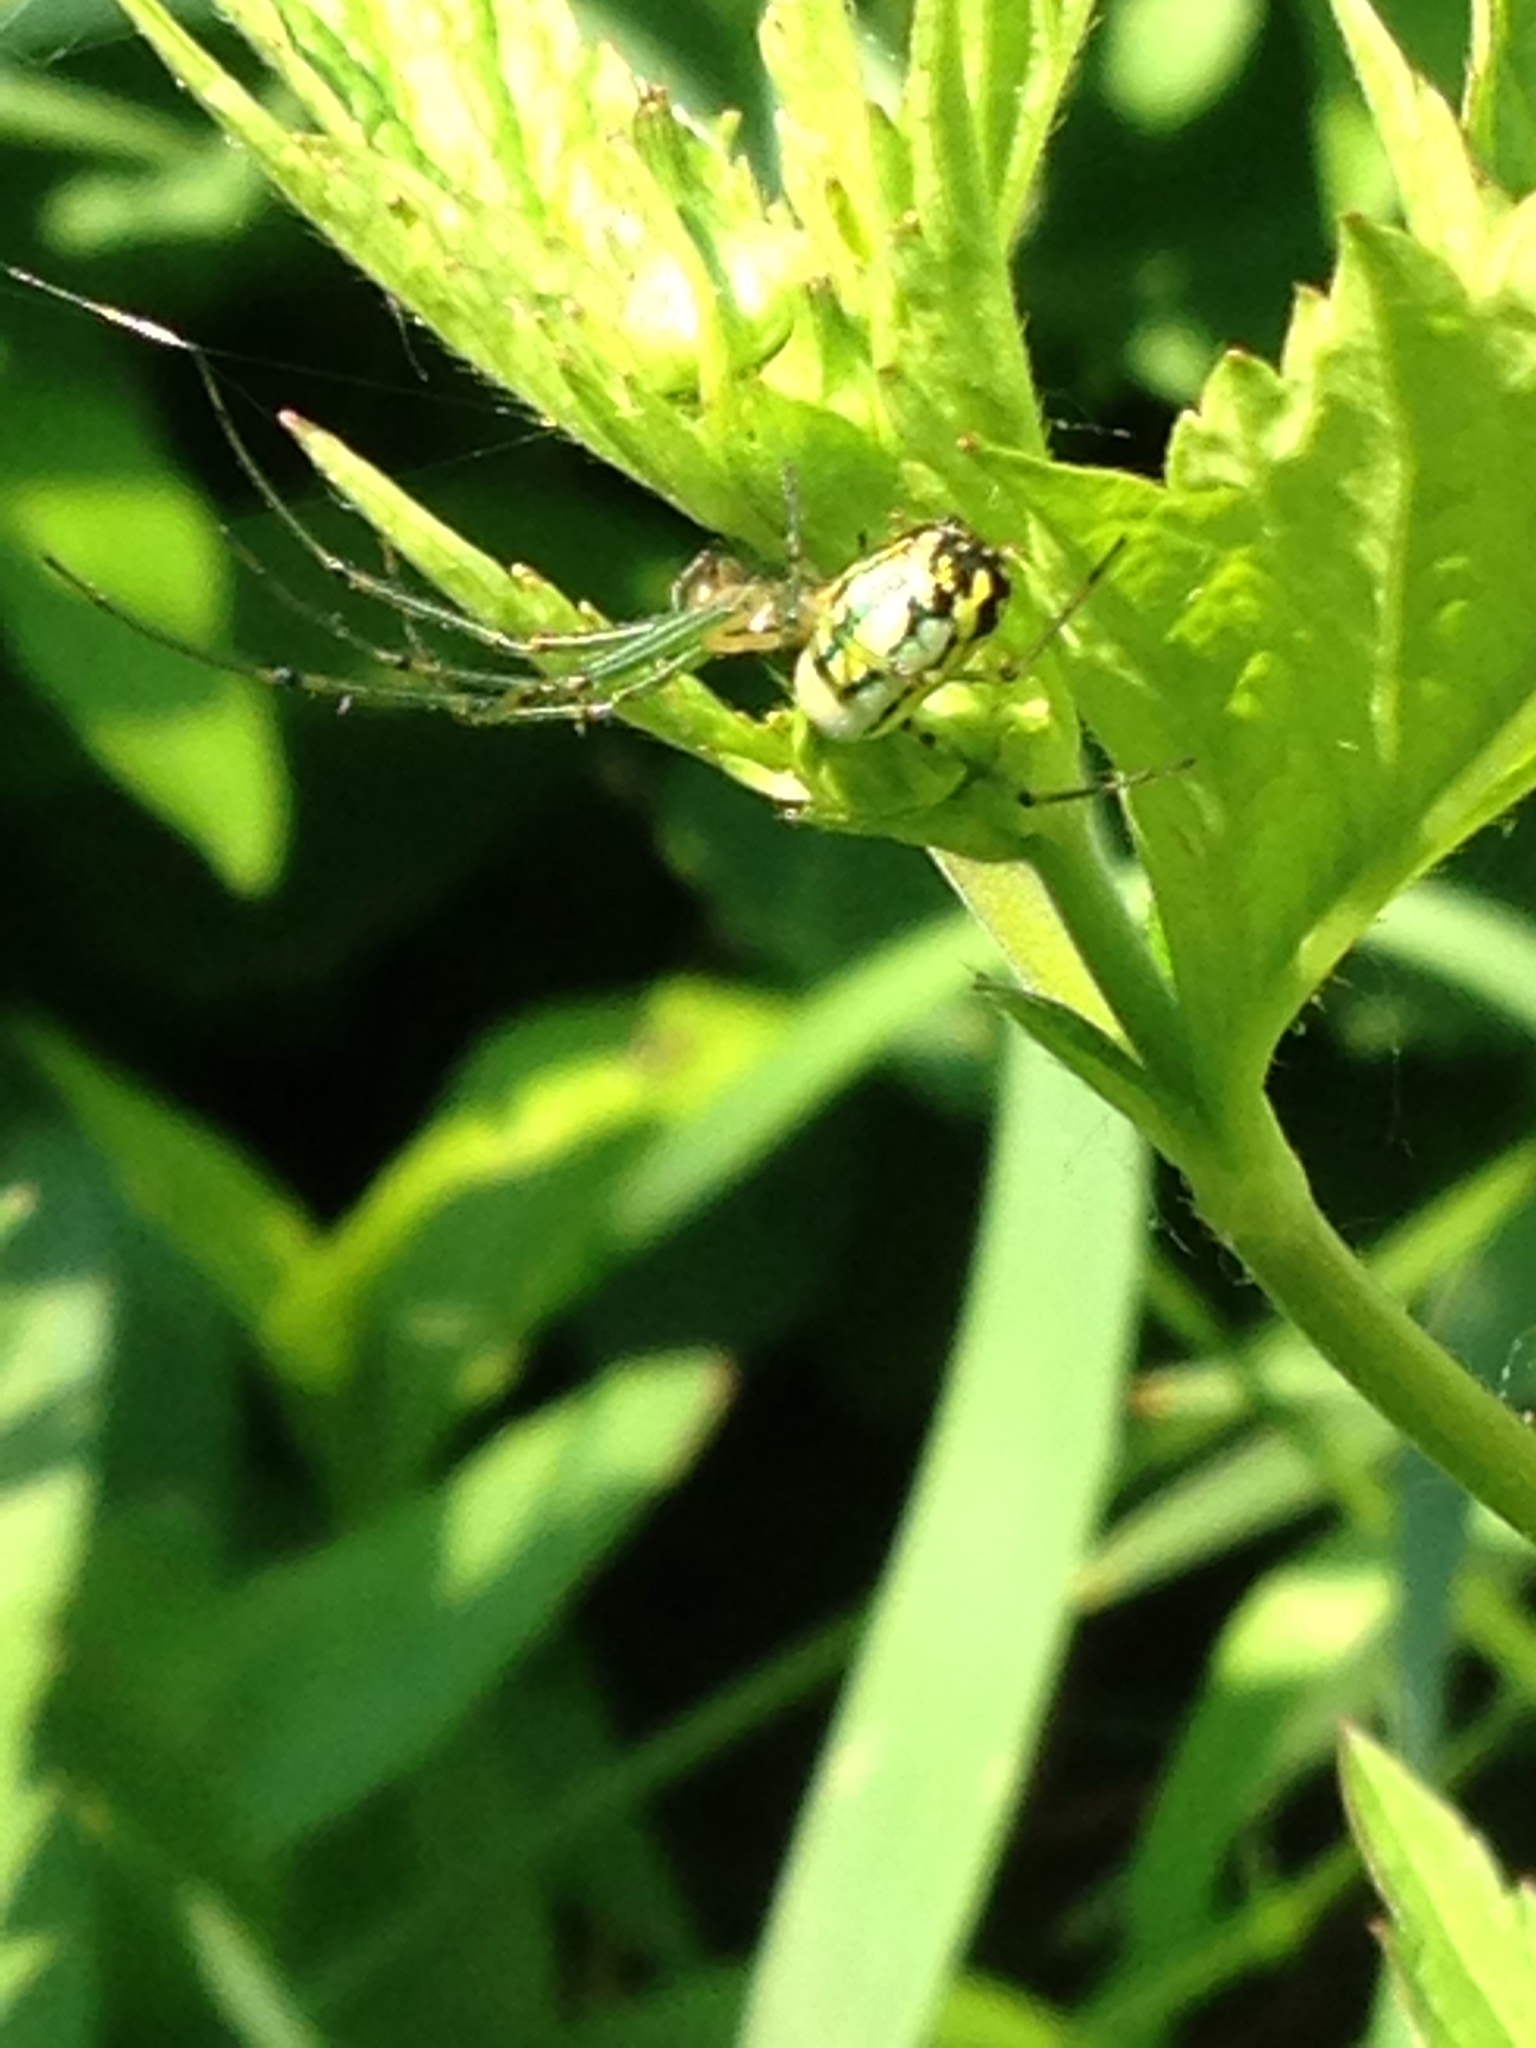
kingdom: Animalia
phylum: Arthropoda
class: Arachnida
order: Araneae
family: Tetragnathidae
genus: Leucauge
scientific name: Leucauge venusta
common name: Longjawed orb weavers
